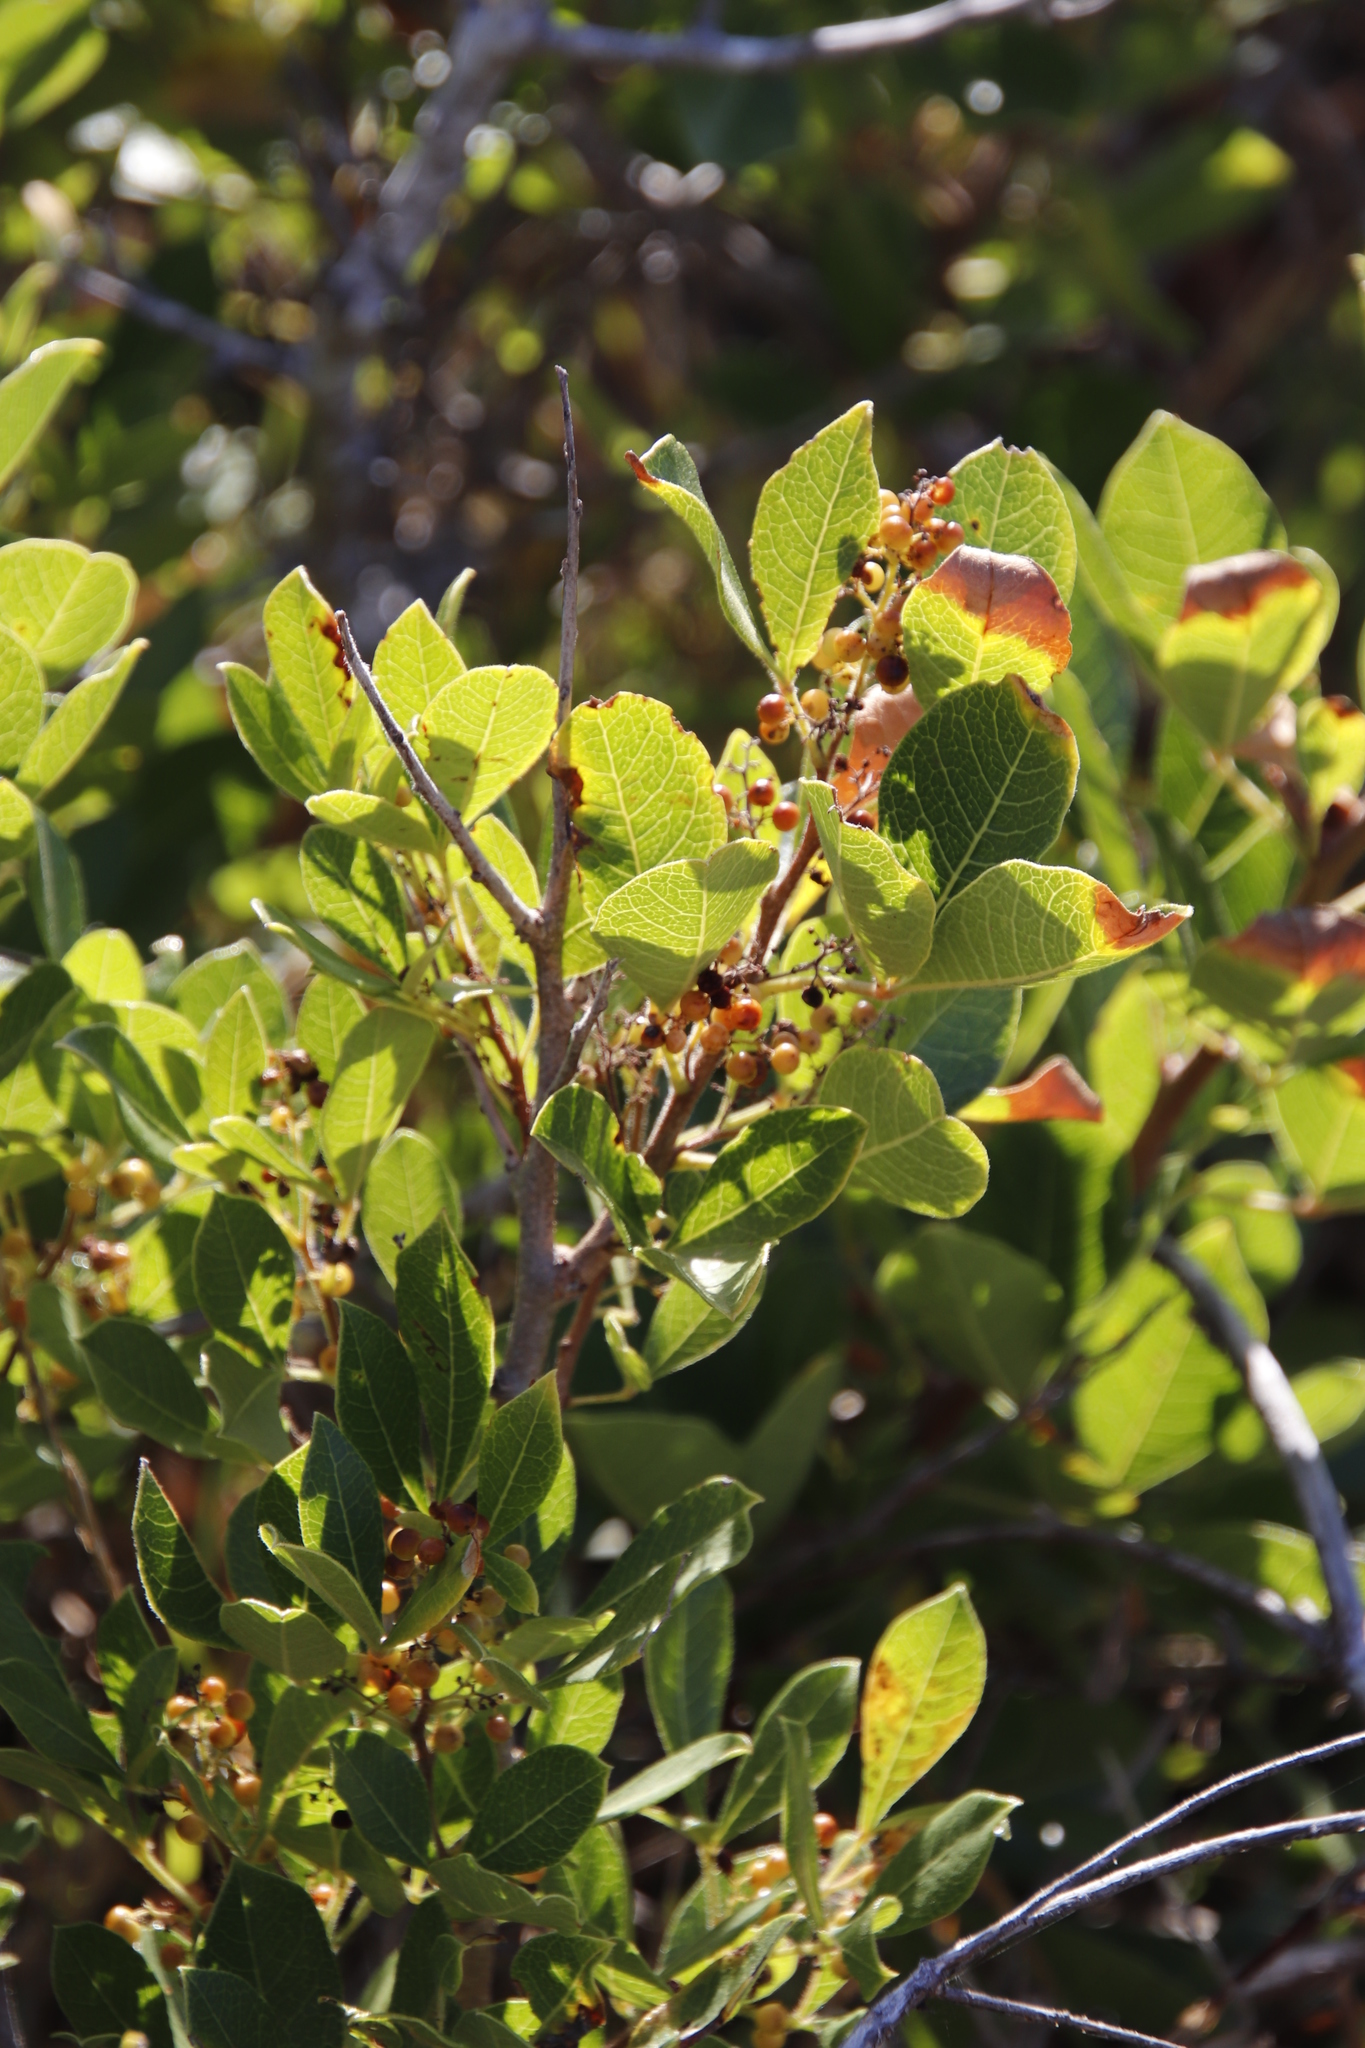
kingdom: Plantae
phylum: Tracheophyta
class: Magnoliopsida
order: Sapindales
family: Anacardiaceae
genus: Searsia
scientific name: Searsia laevigata
